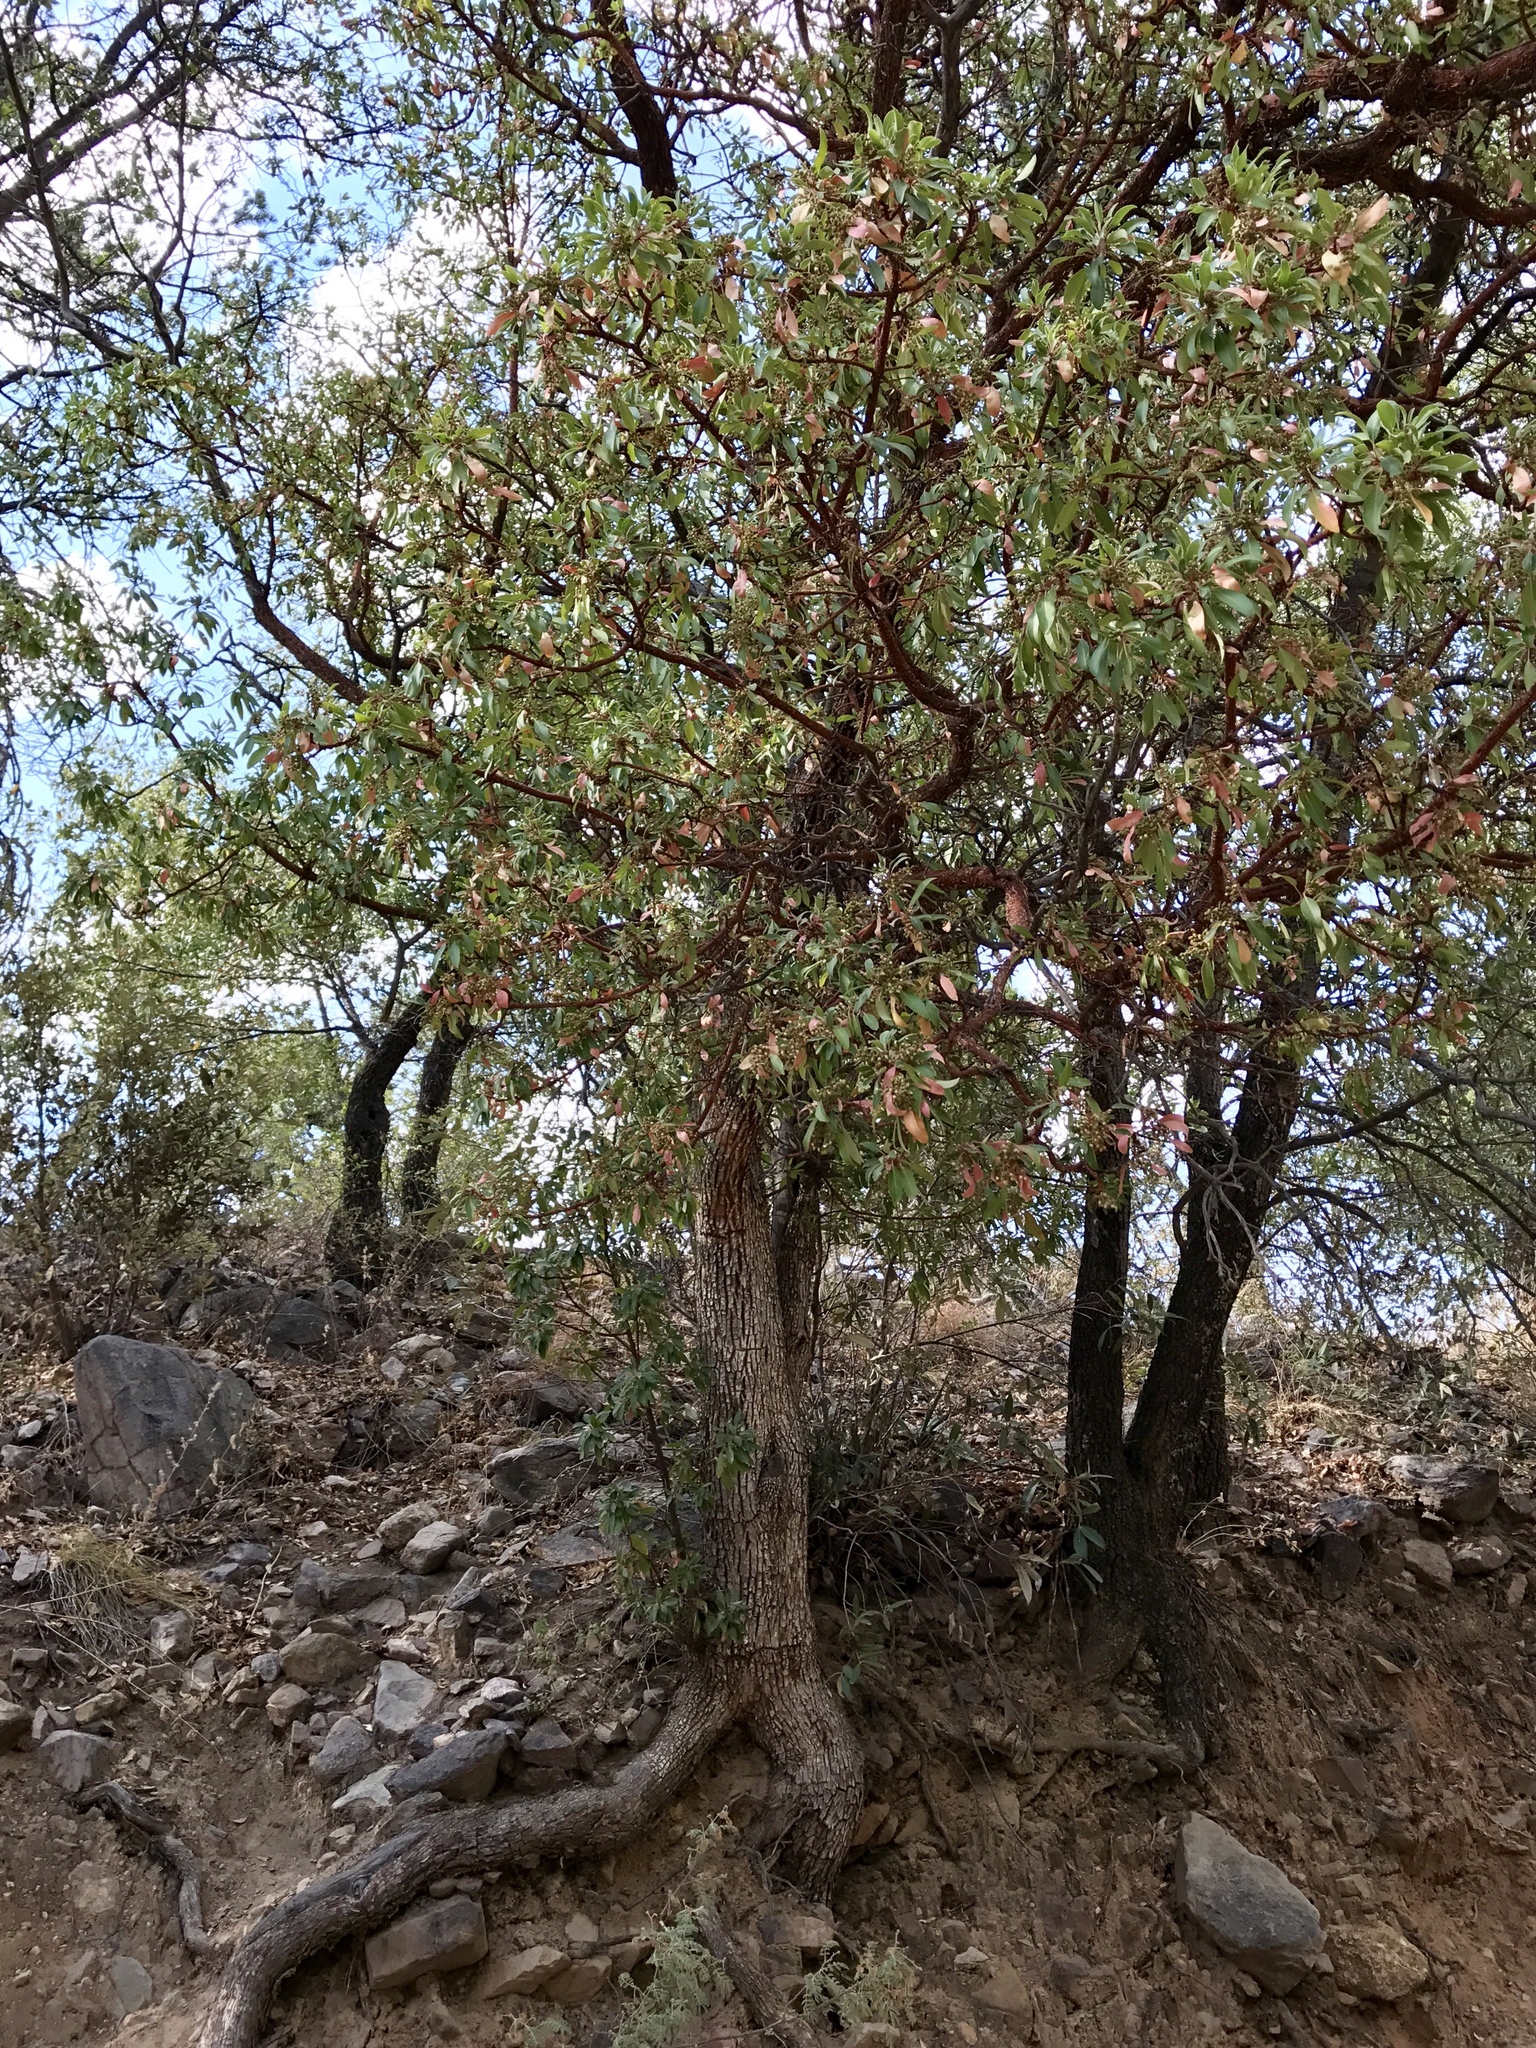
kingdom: Plantae
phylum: Tracheophyta
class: Magnoliopsida
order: Ericales
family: Ericaceae
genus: Arbutus
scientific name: Arbutus arizonica
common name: Arizona madrone
